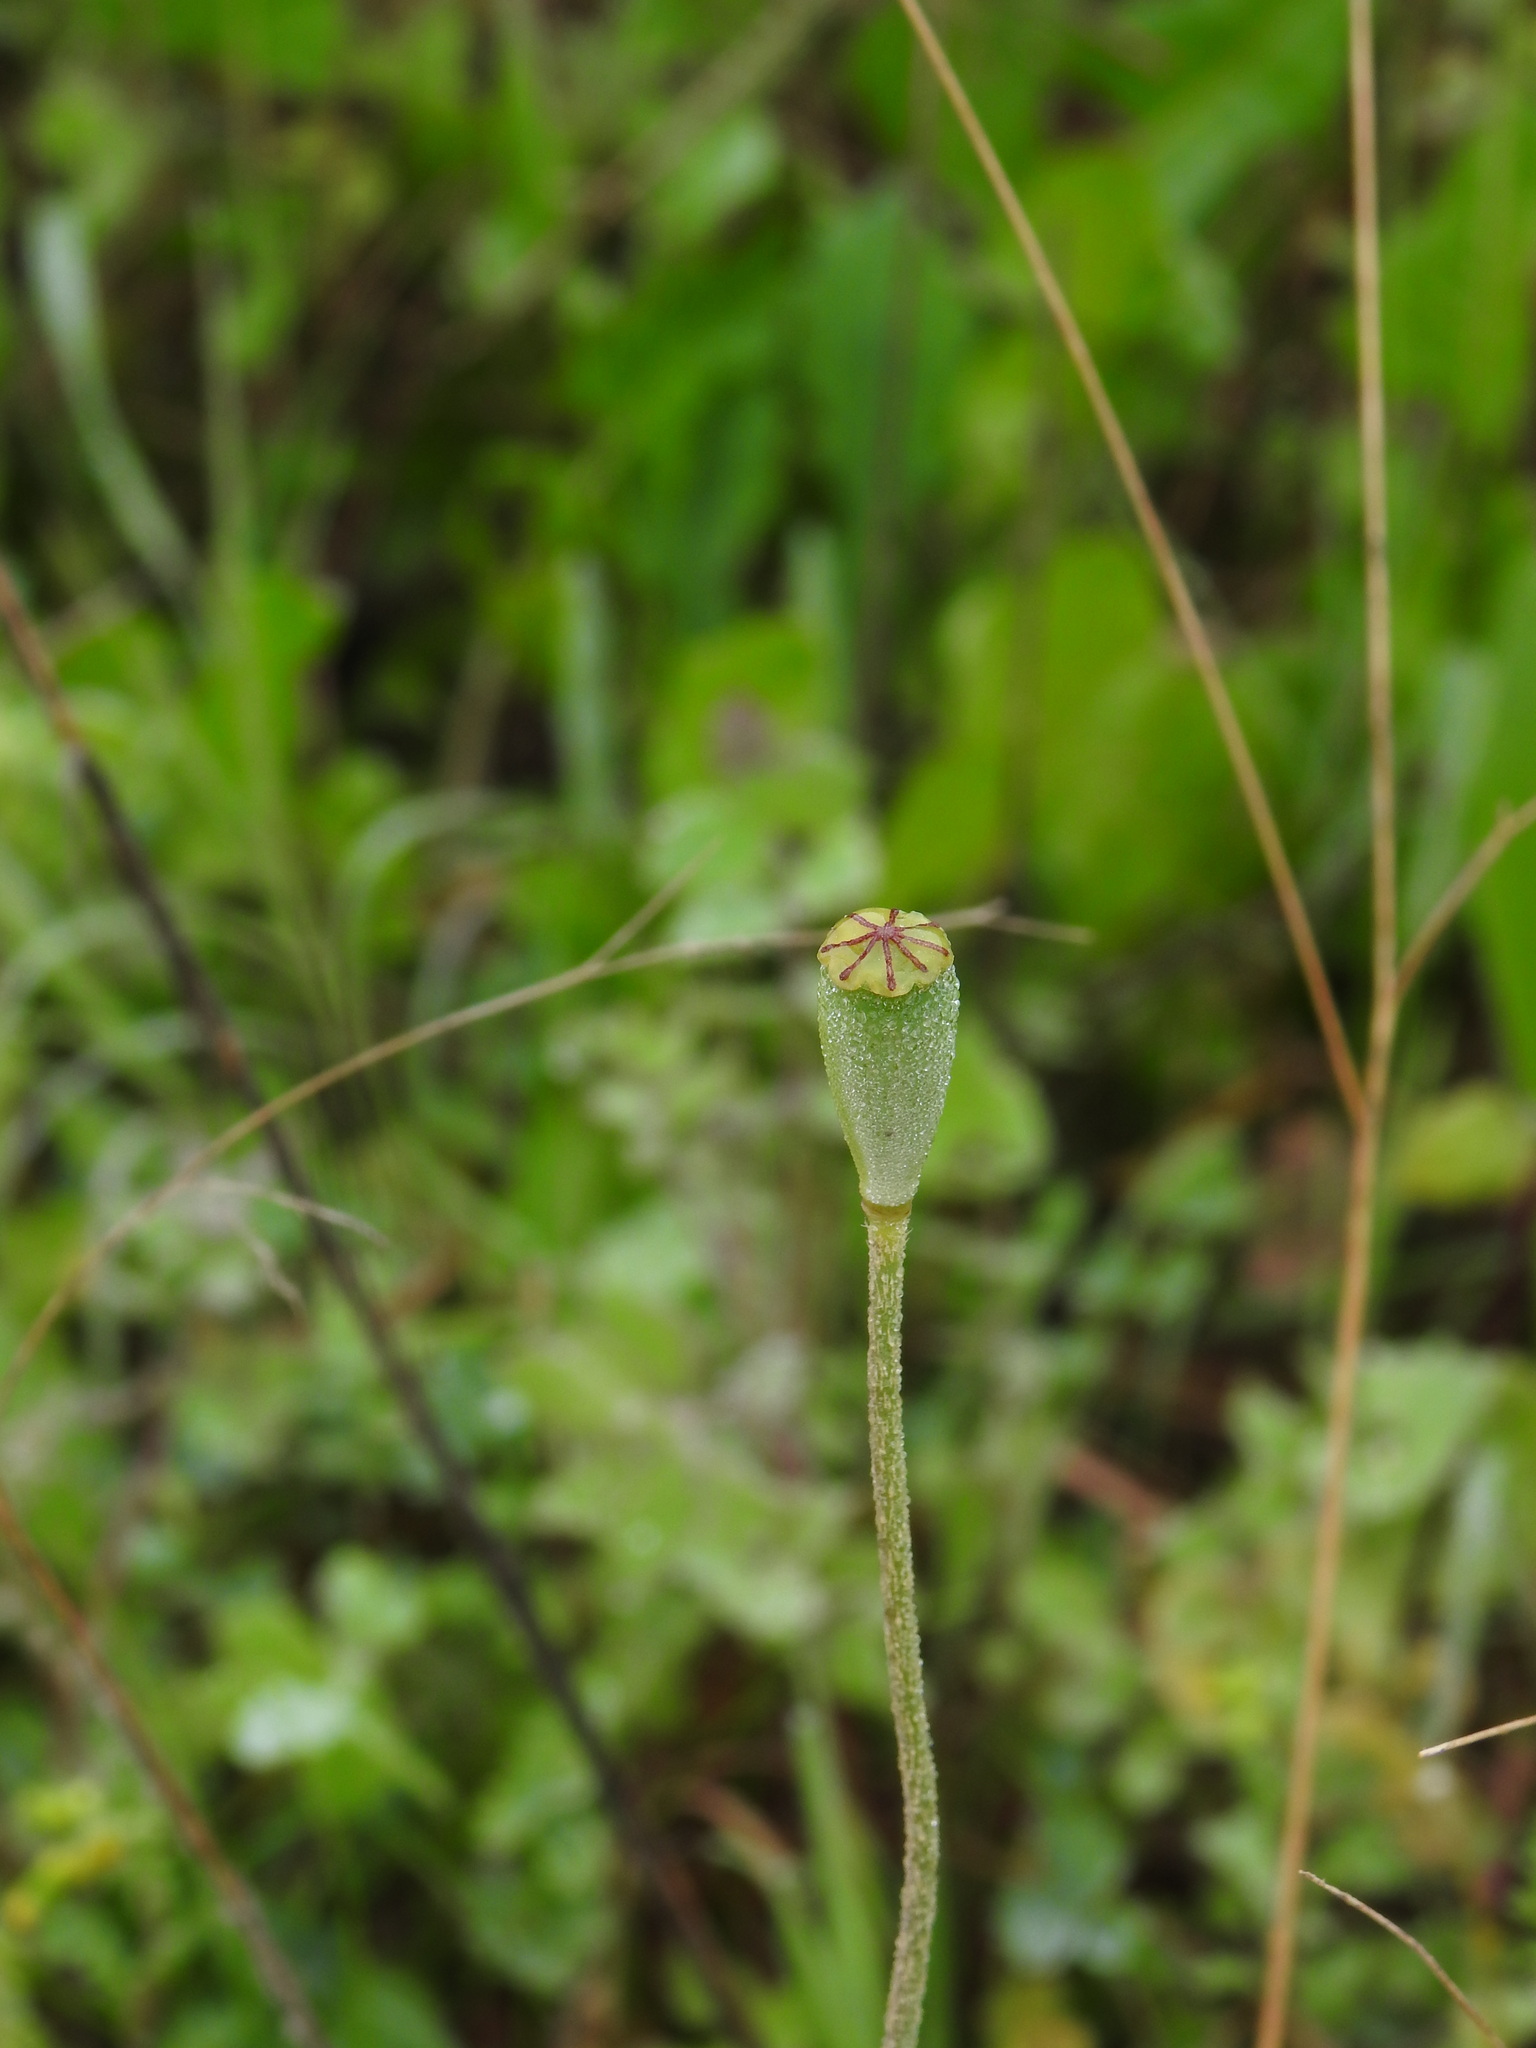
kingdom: Plantae
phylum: Tracheophyta
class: Magnoliopsida
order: Ranunculales
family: Papaveraceae
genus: Papaver
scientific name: Papaver dubium
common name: Long-headed poppy
